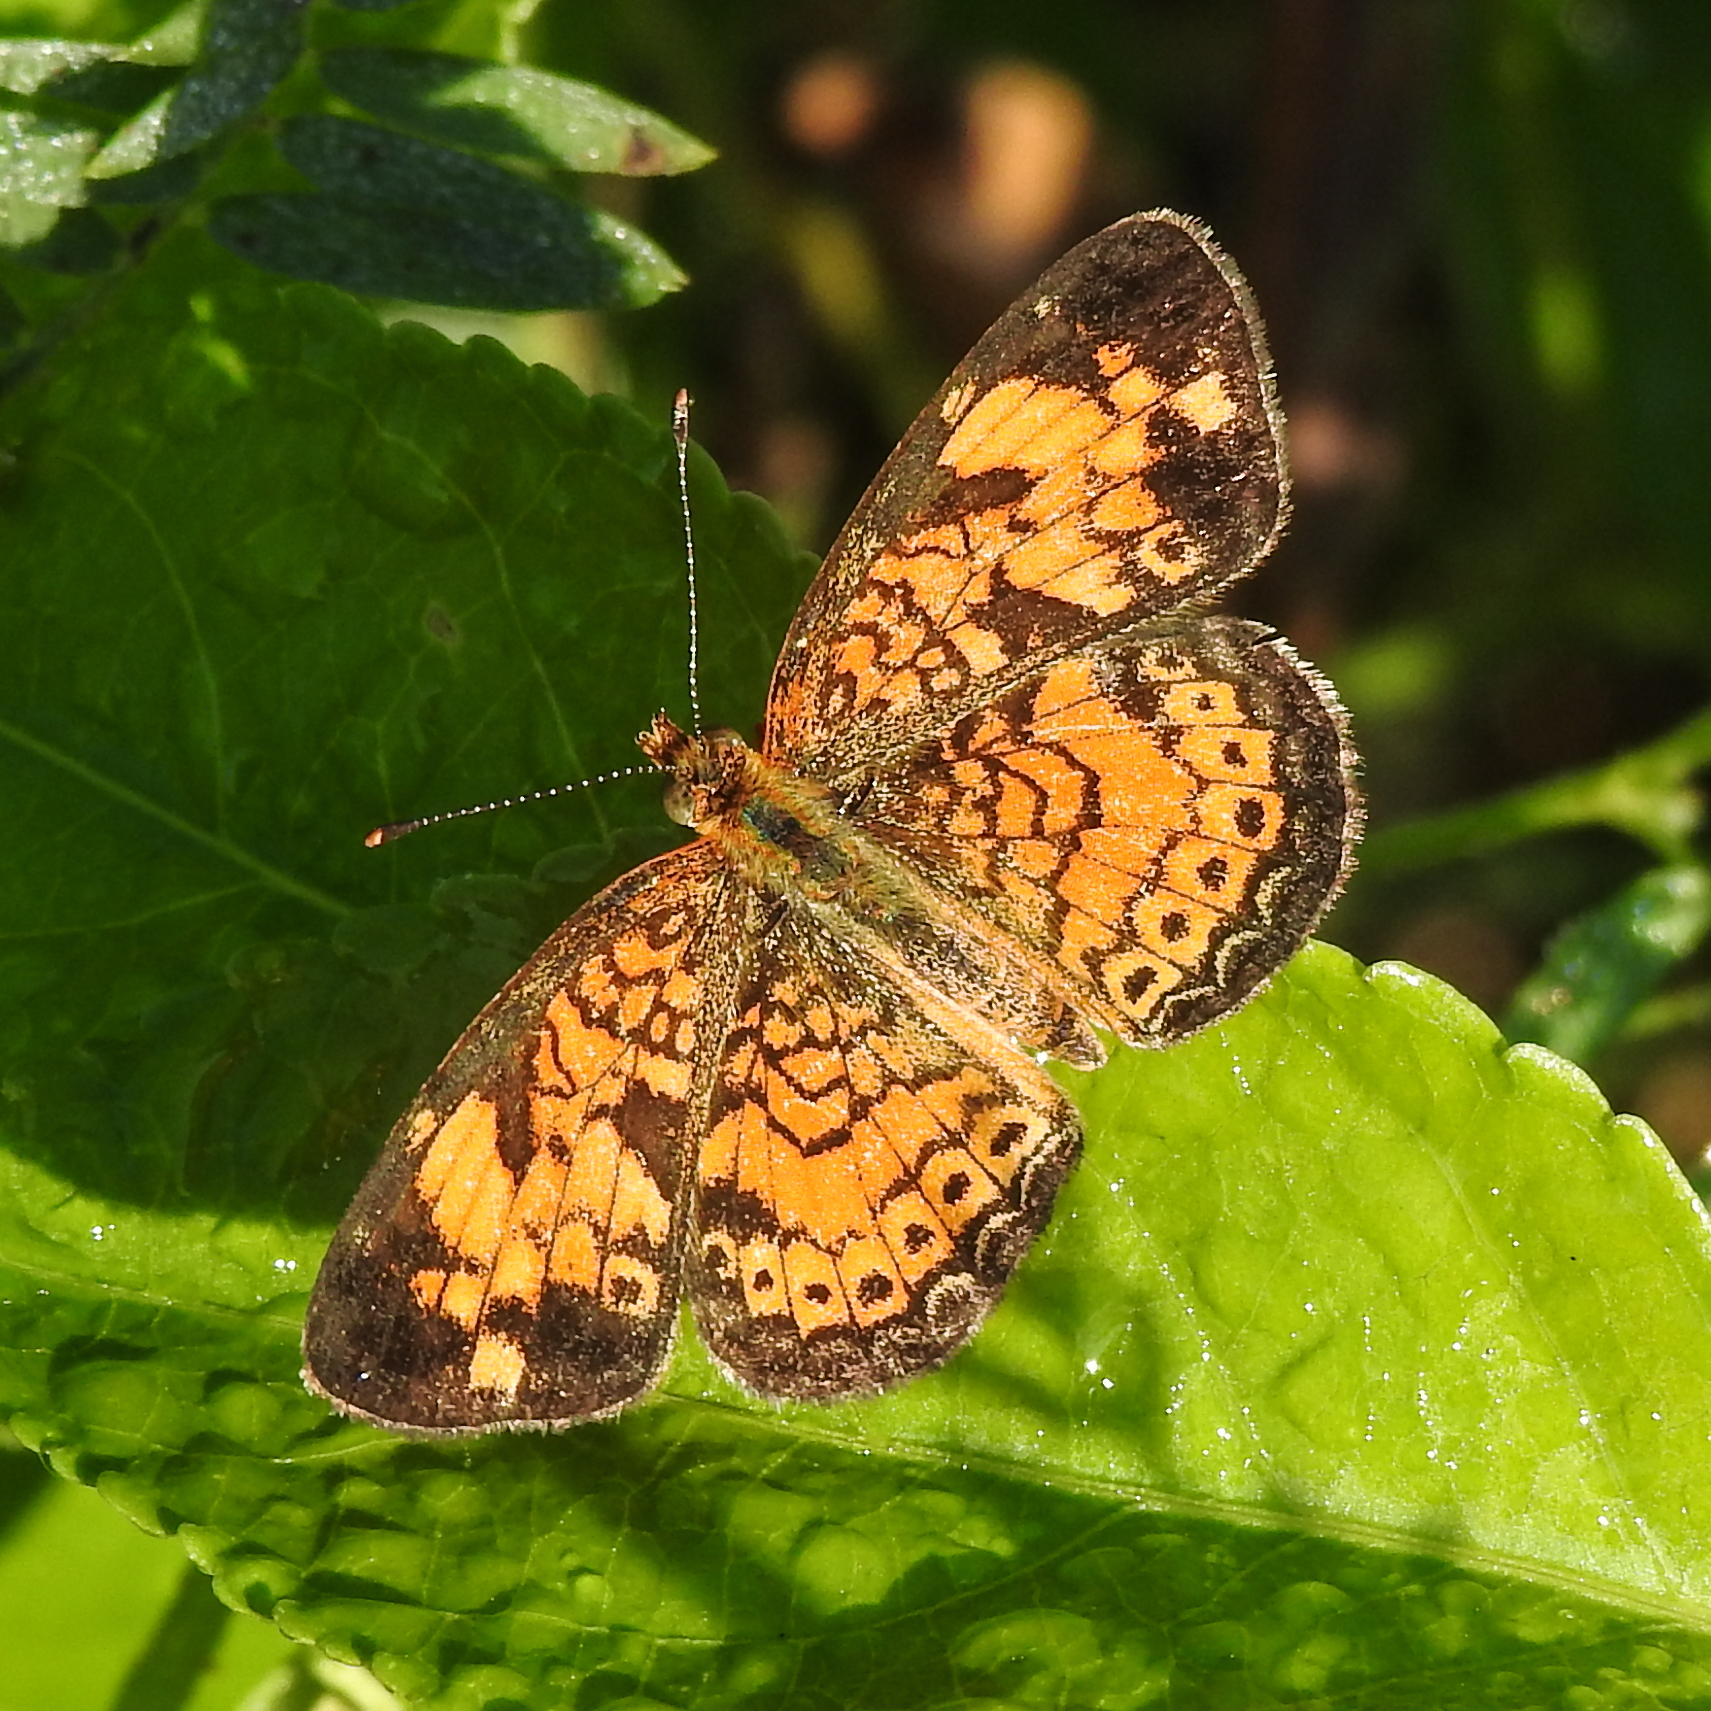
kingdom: Animalia
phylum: Arthropoda
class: Insecta
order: Lepidoptera
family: Nymphalidae
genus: Phyciodes
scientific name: Phyciodes tharos
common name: Pearl crescent
